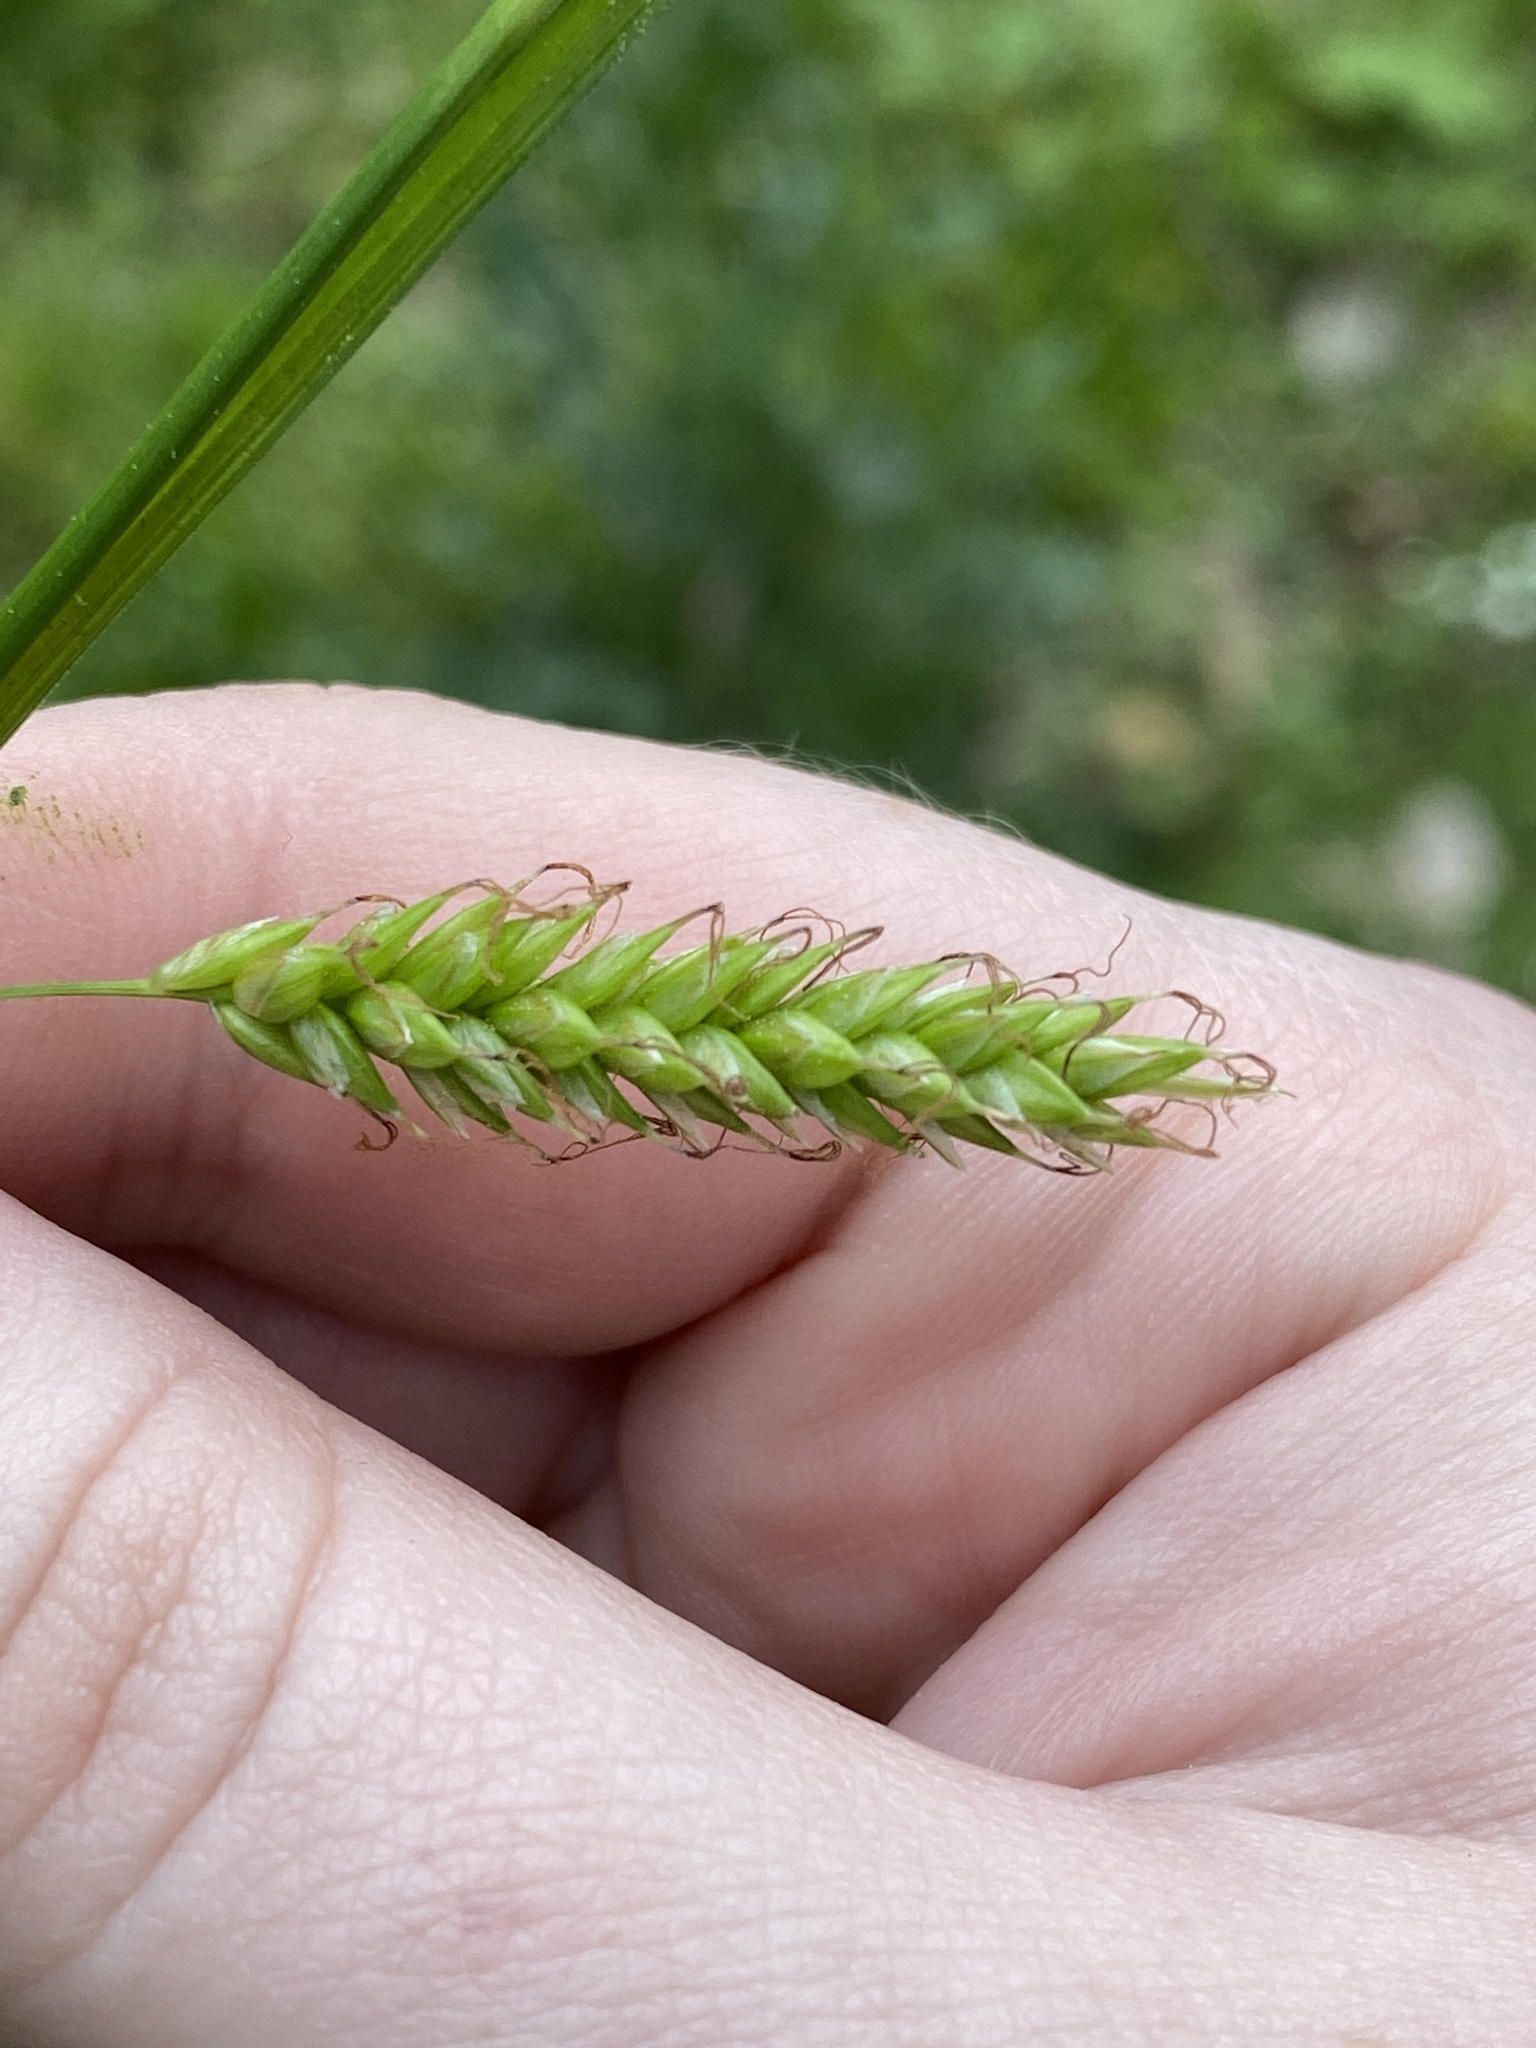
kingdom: Plantae
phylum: Tracheophyta
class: Liliopsida
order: Poales
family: Cyperaceae
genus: Carex
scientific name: Carex cherokeensis
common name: Cherokee sedge
